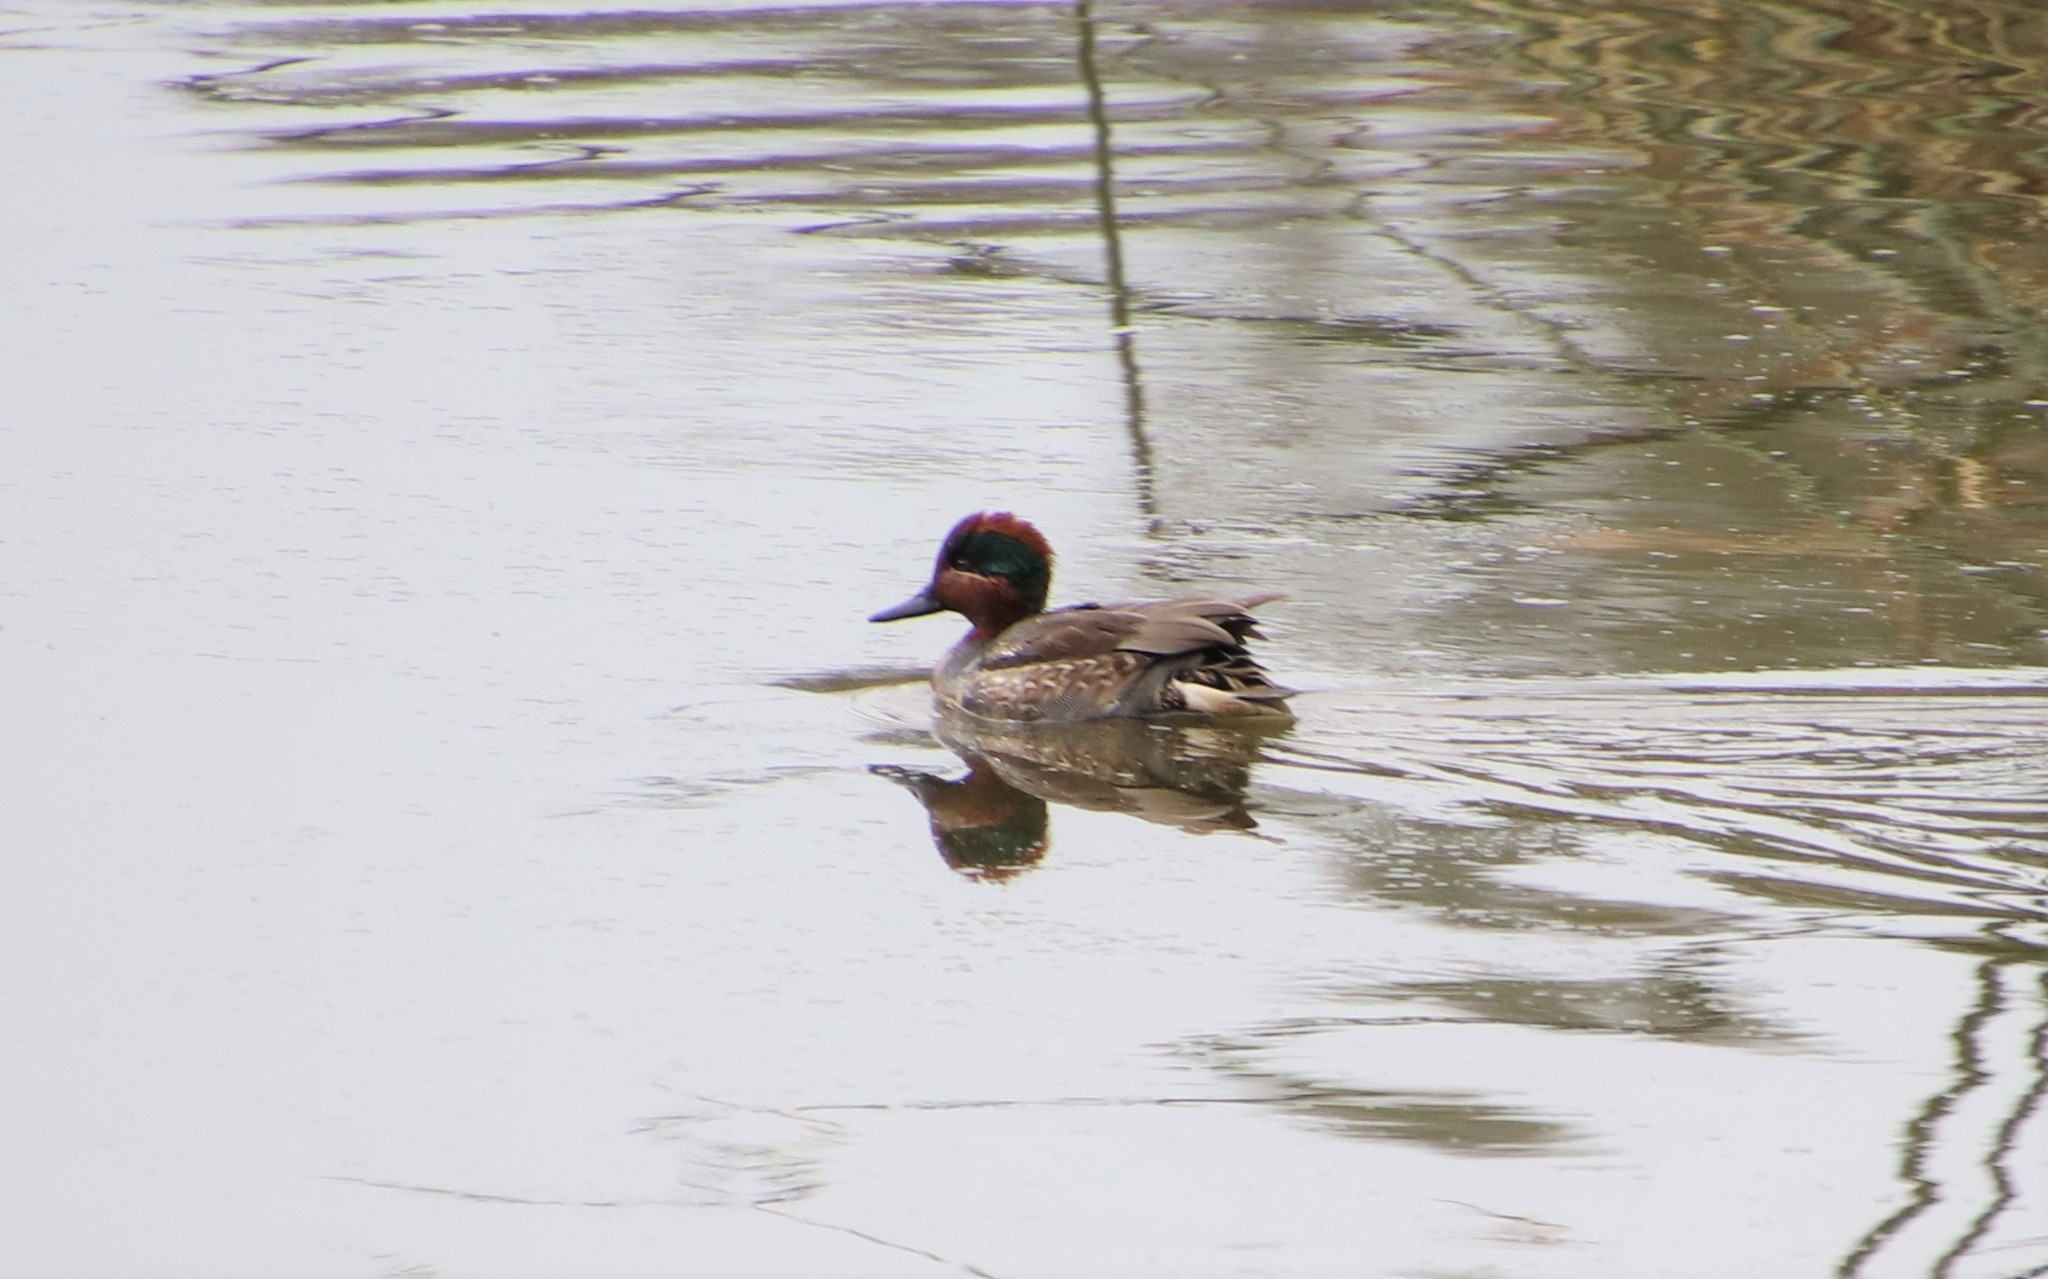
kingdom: Animalia
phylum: Chordata
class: Aves
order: Anseriformes
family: Anatidae
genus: Anas
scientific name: Anas crecca
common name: Eurasian teal
